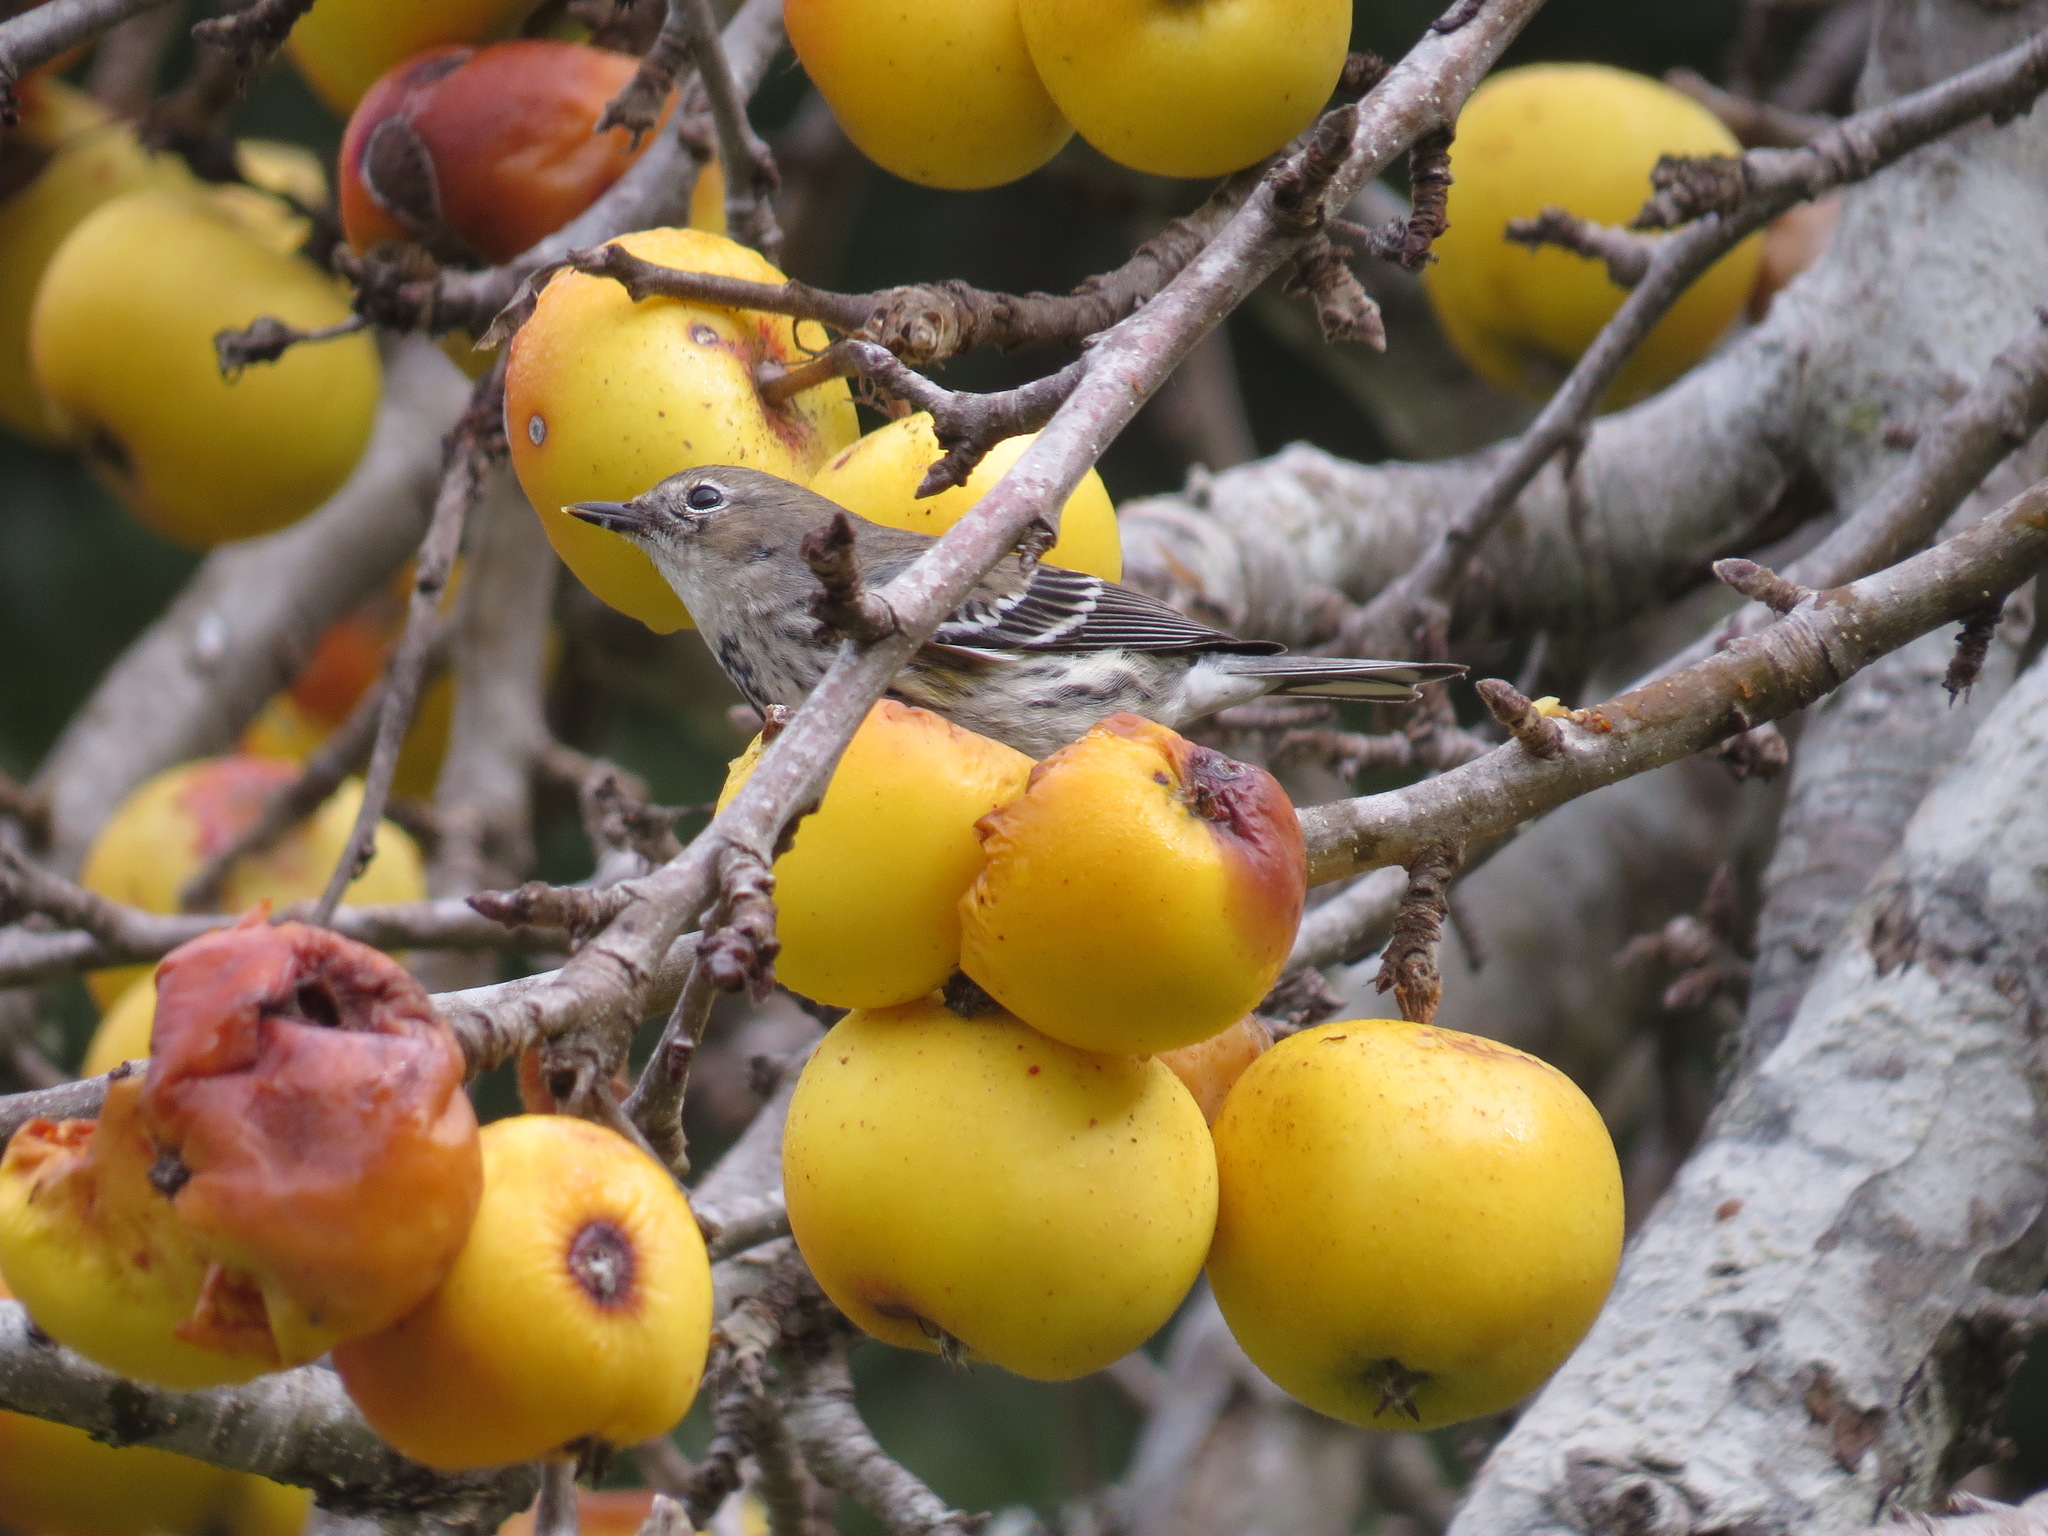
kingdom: Animalia
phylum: Chordata
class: Aves
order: Passeriformes
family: Parulidae
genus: Setophaga
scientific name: Setophaga coronata
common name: Myrtle warbler
